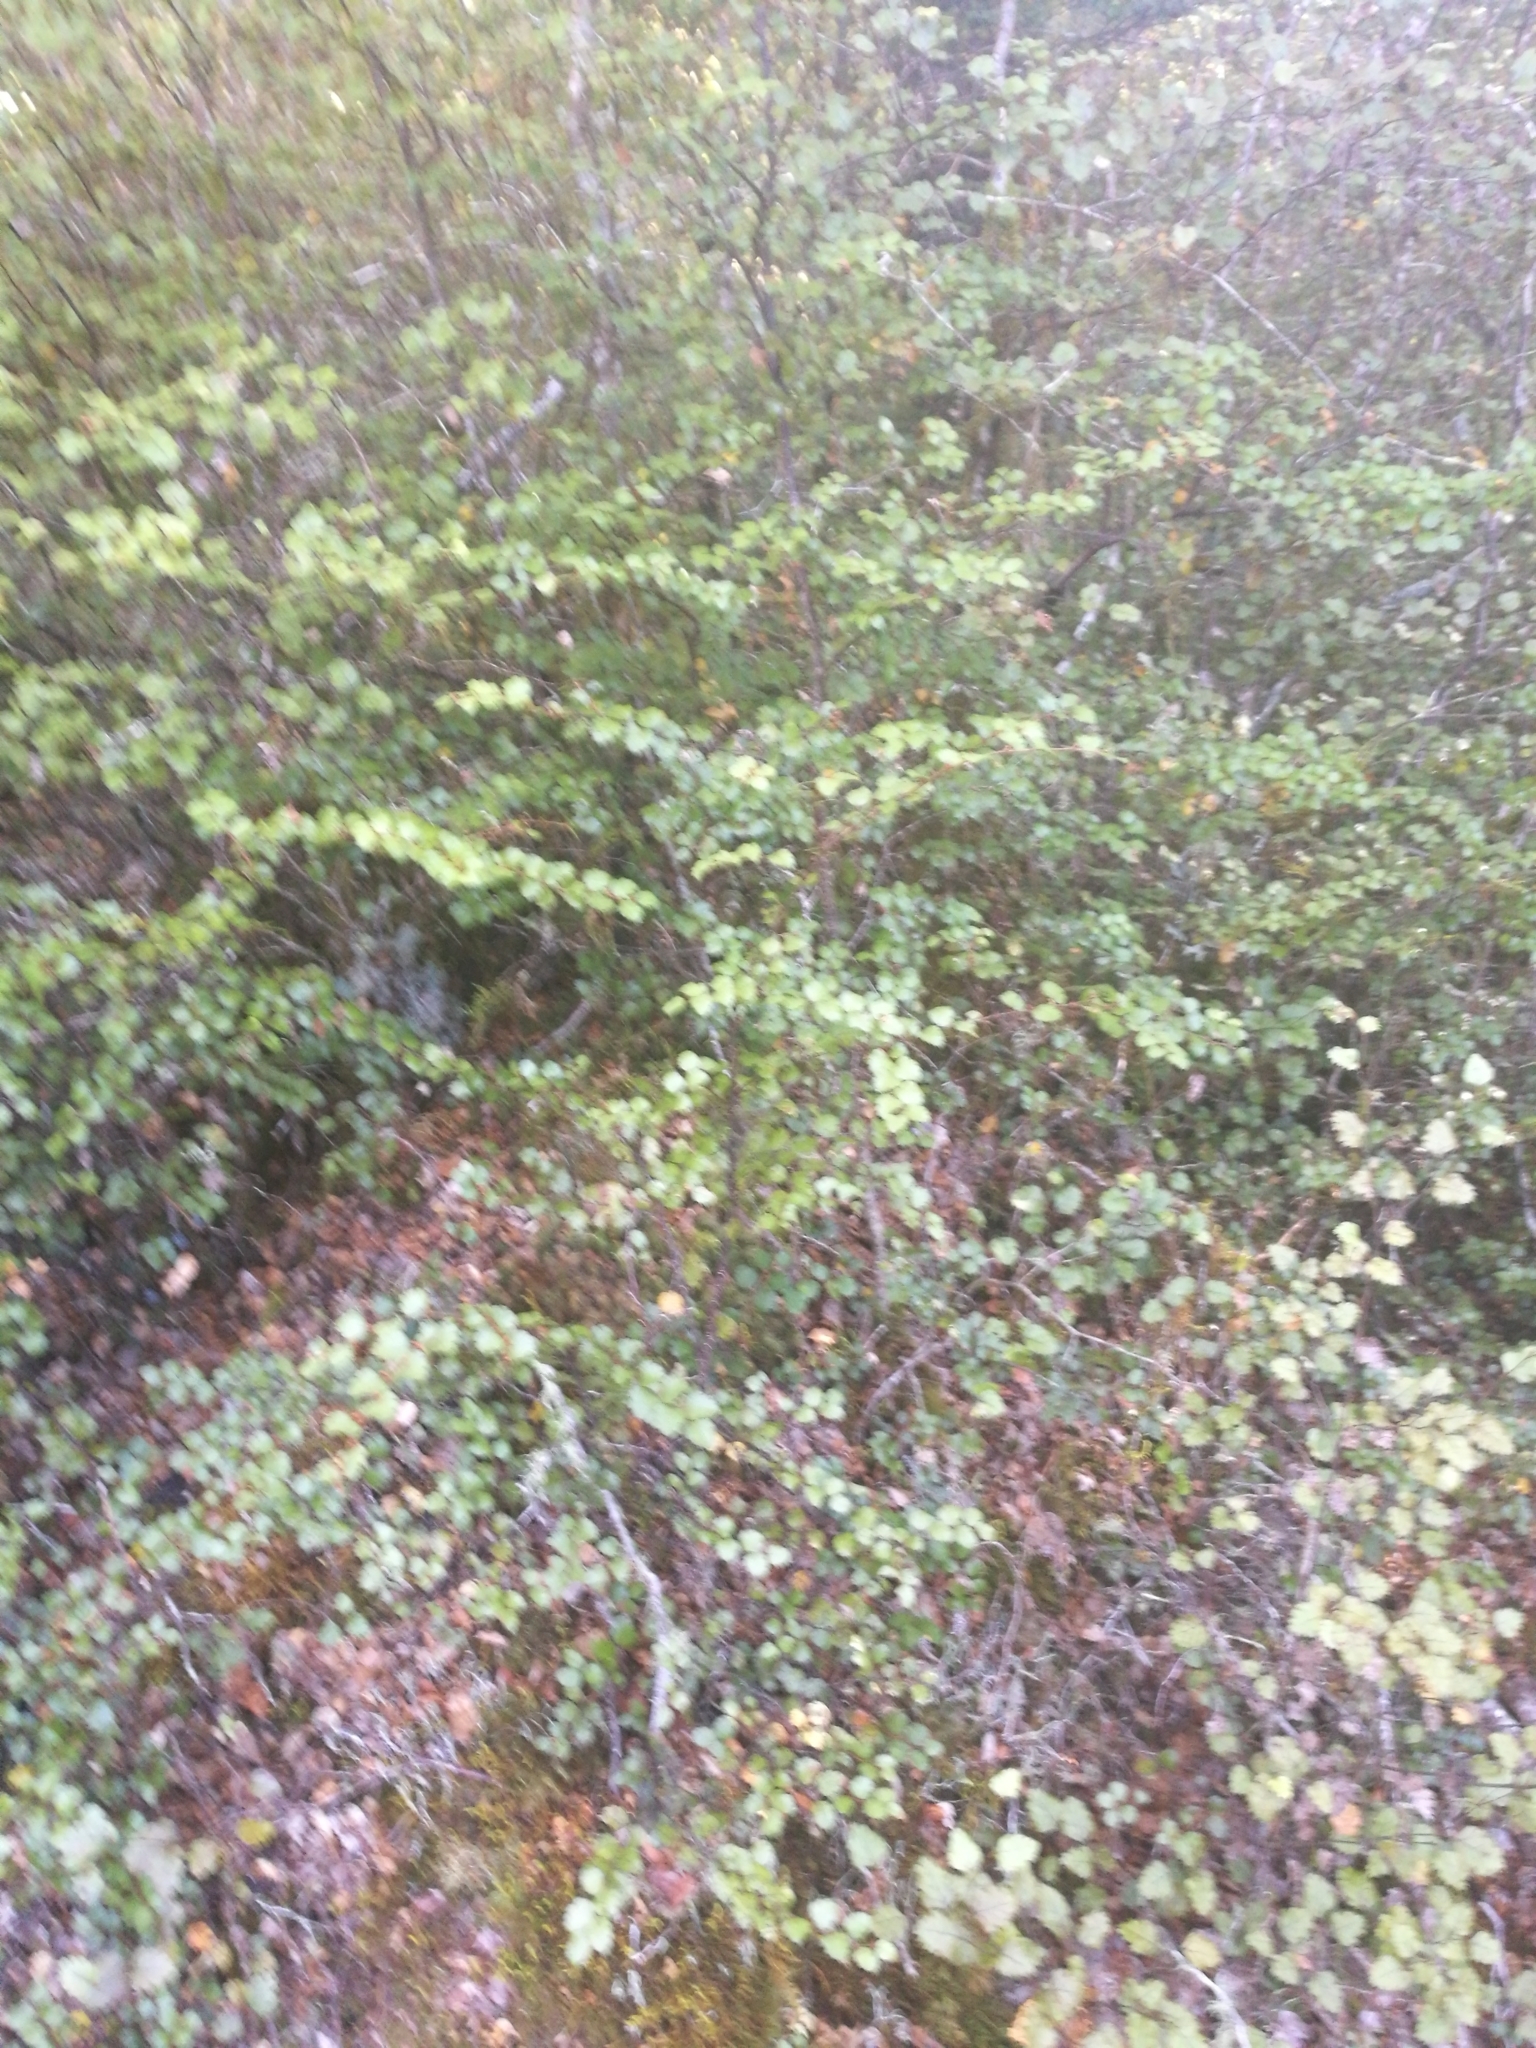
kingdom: Plantae
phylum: Tracheophyta
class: Magnoliopsida
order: Fagales
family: Nothofagaceae
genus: Nothofagus
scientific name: Nothofagus menziesii
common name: Silver beech
